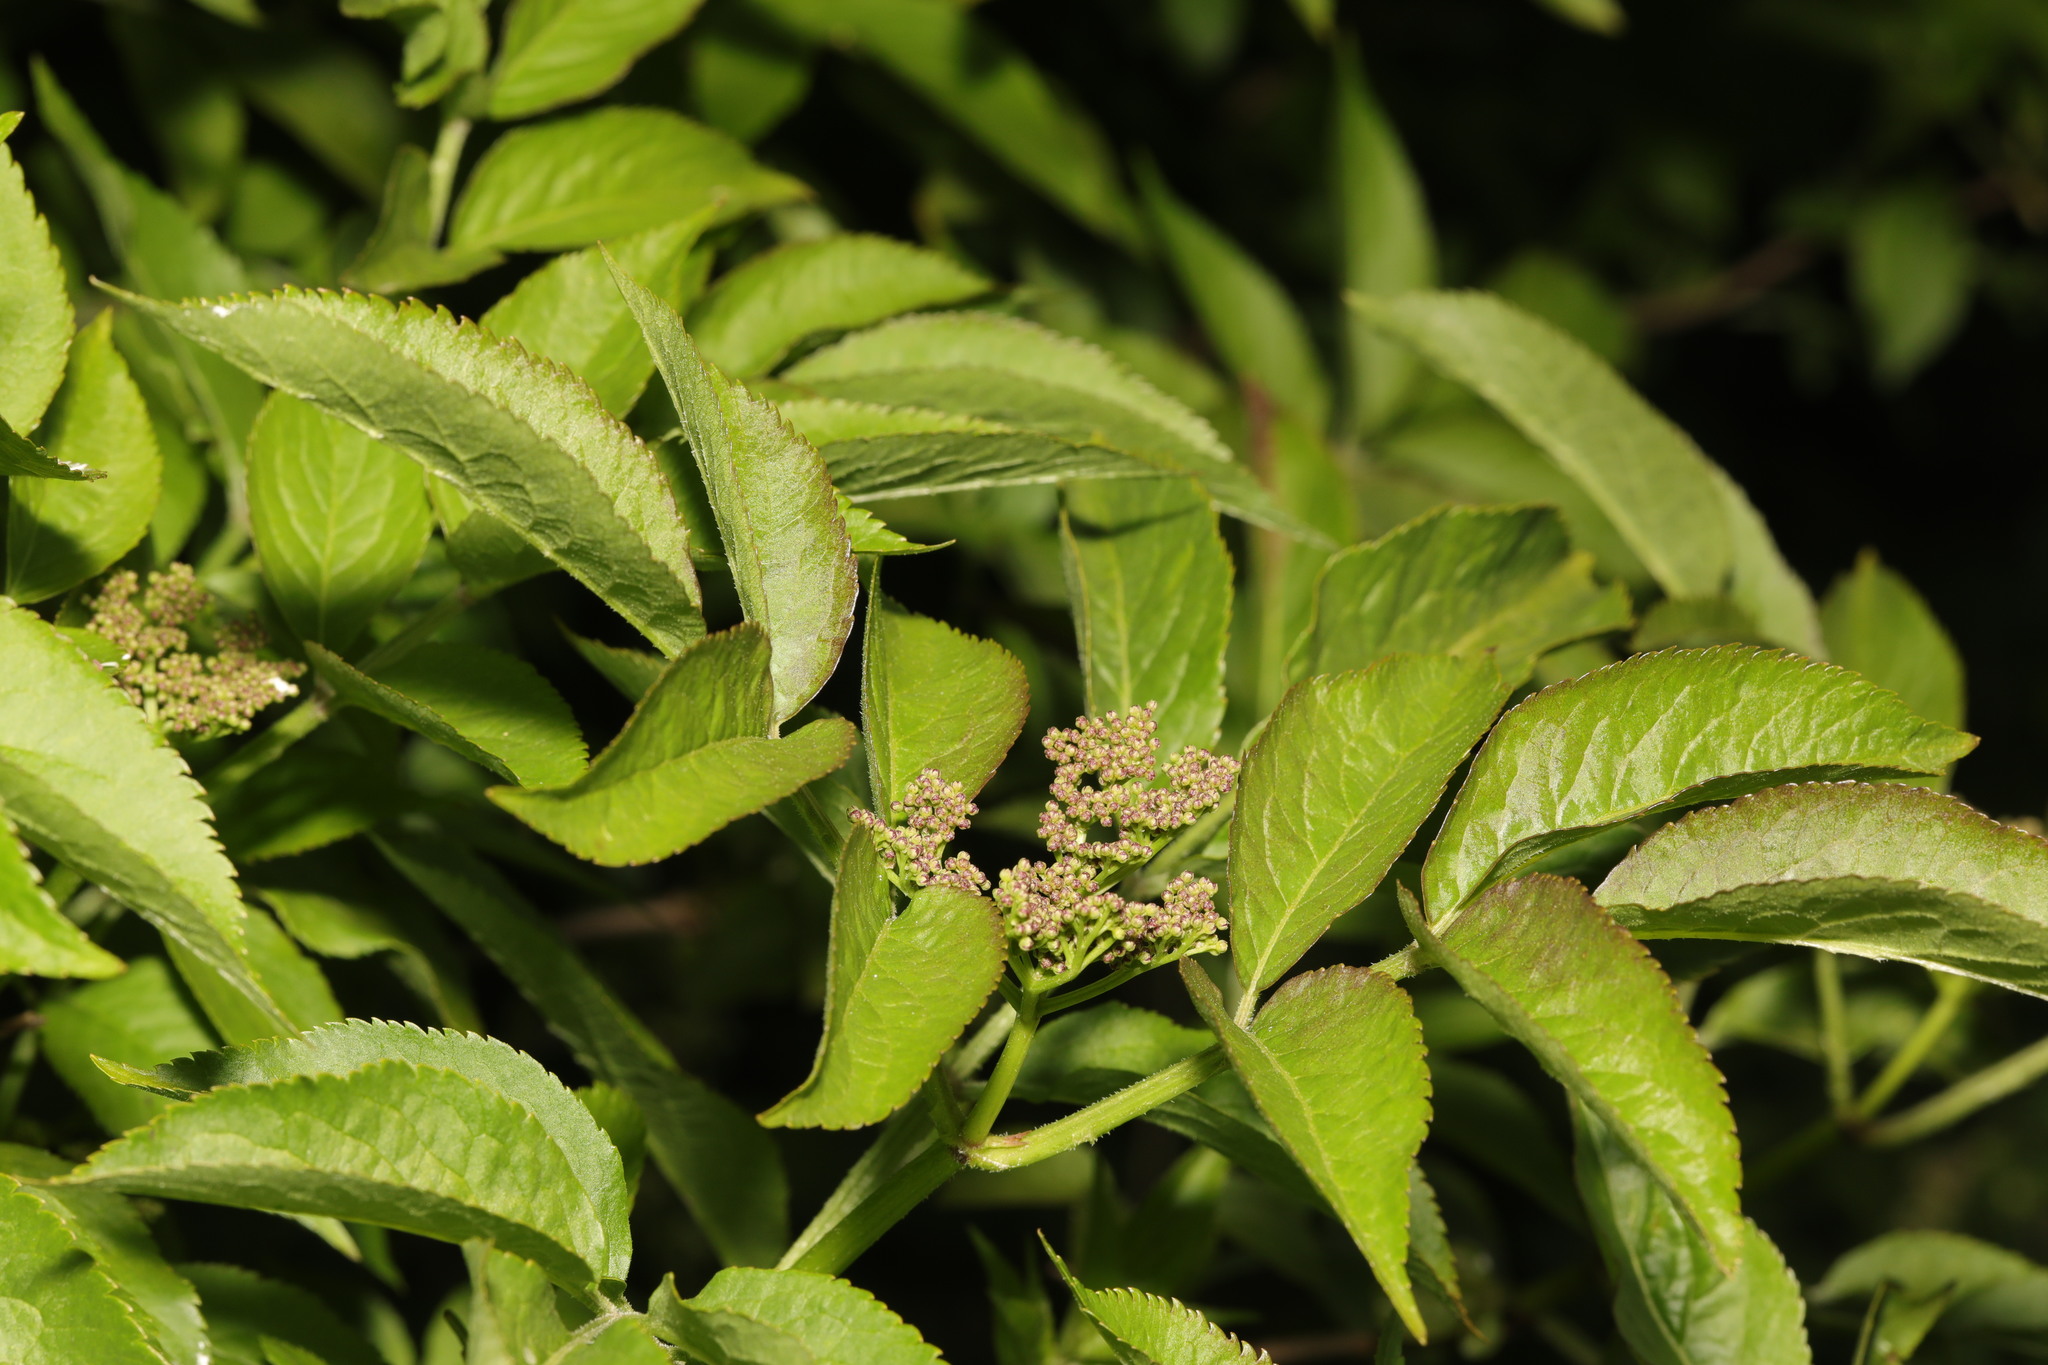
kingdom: Plantae
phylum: Tracheophyta
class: Magnoliopsida
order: Dipsacales
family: Viburnaceae
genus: Sambucus
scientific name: Sambucus nigra
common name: Elder
